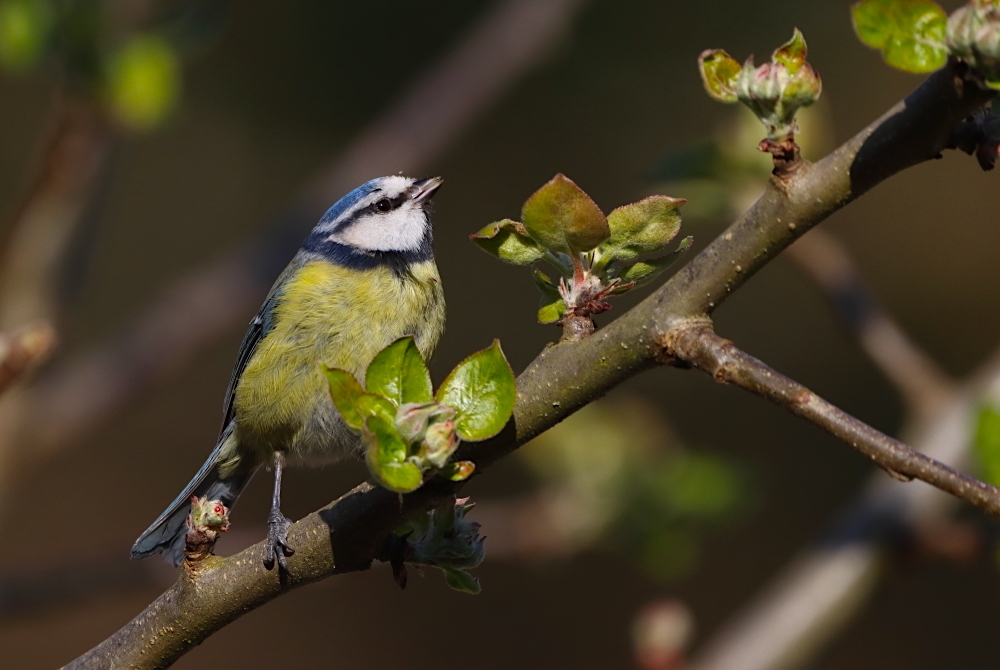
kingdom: Animalia
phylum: Chordata
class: Aves
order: Passeriformes
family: Paridae
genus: Cyanistes
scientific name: Cyanistes caeruleus
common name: Eurasian blue tit
